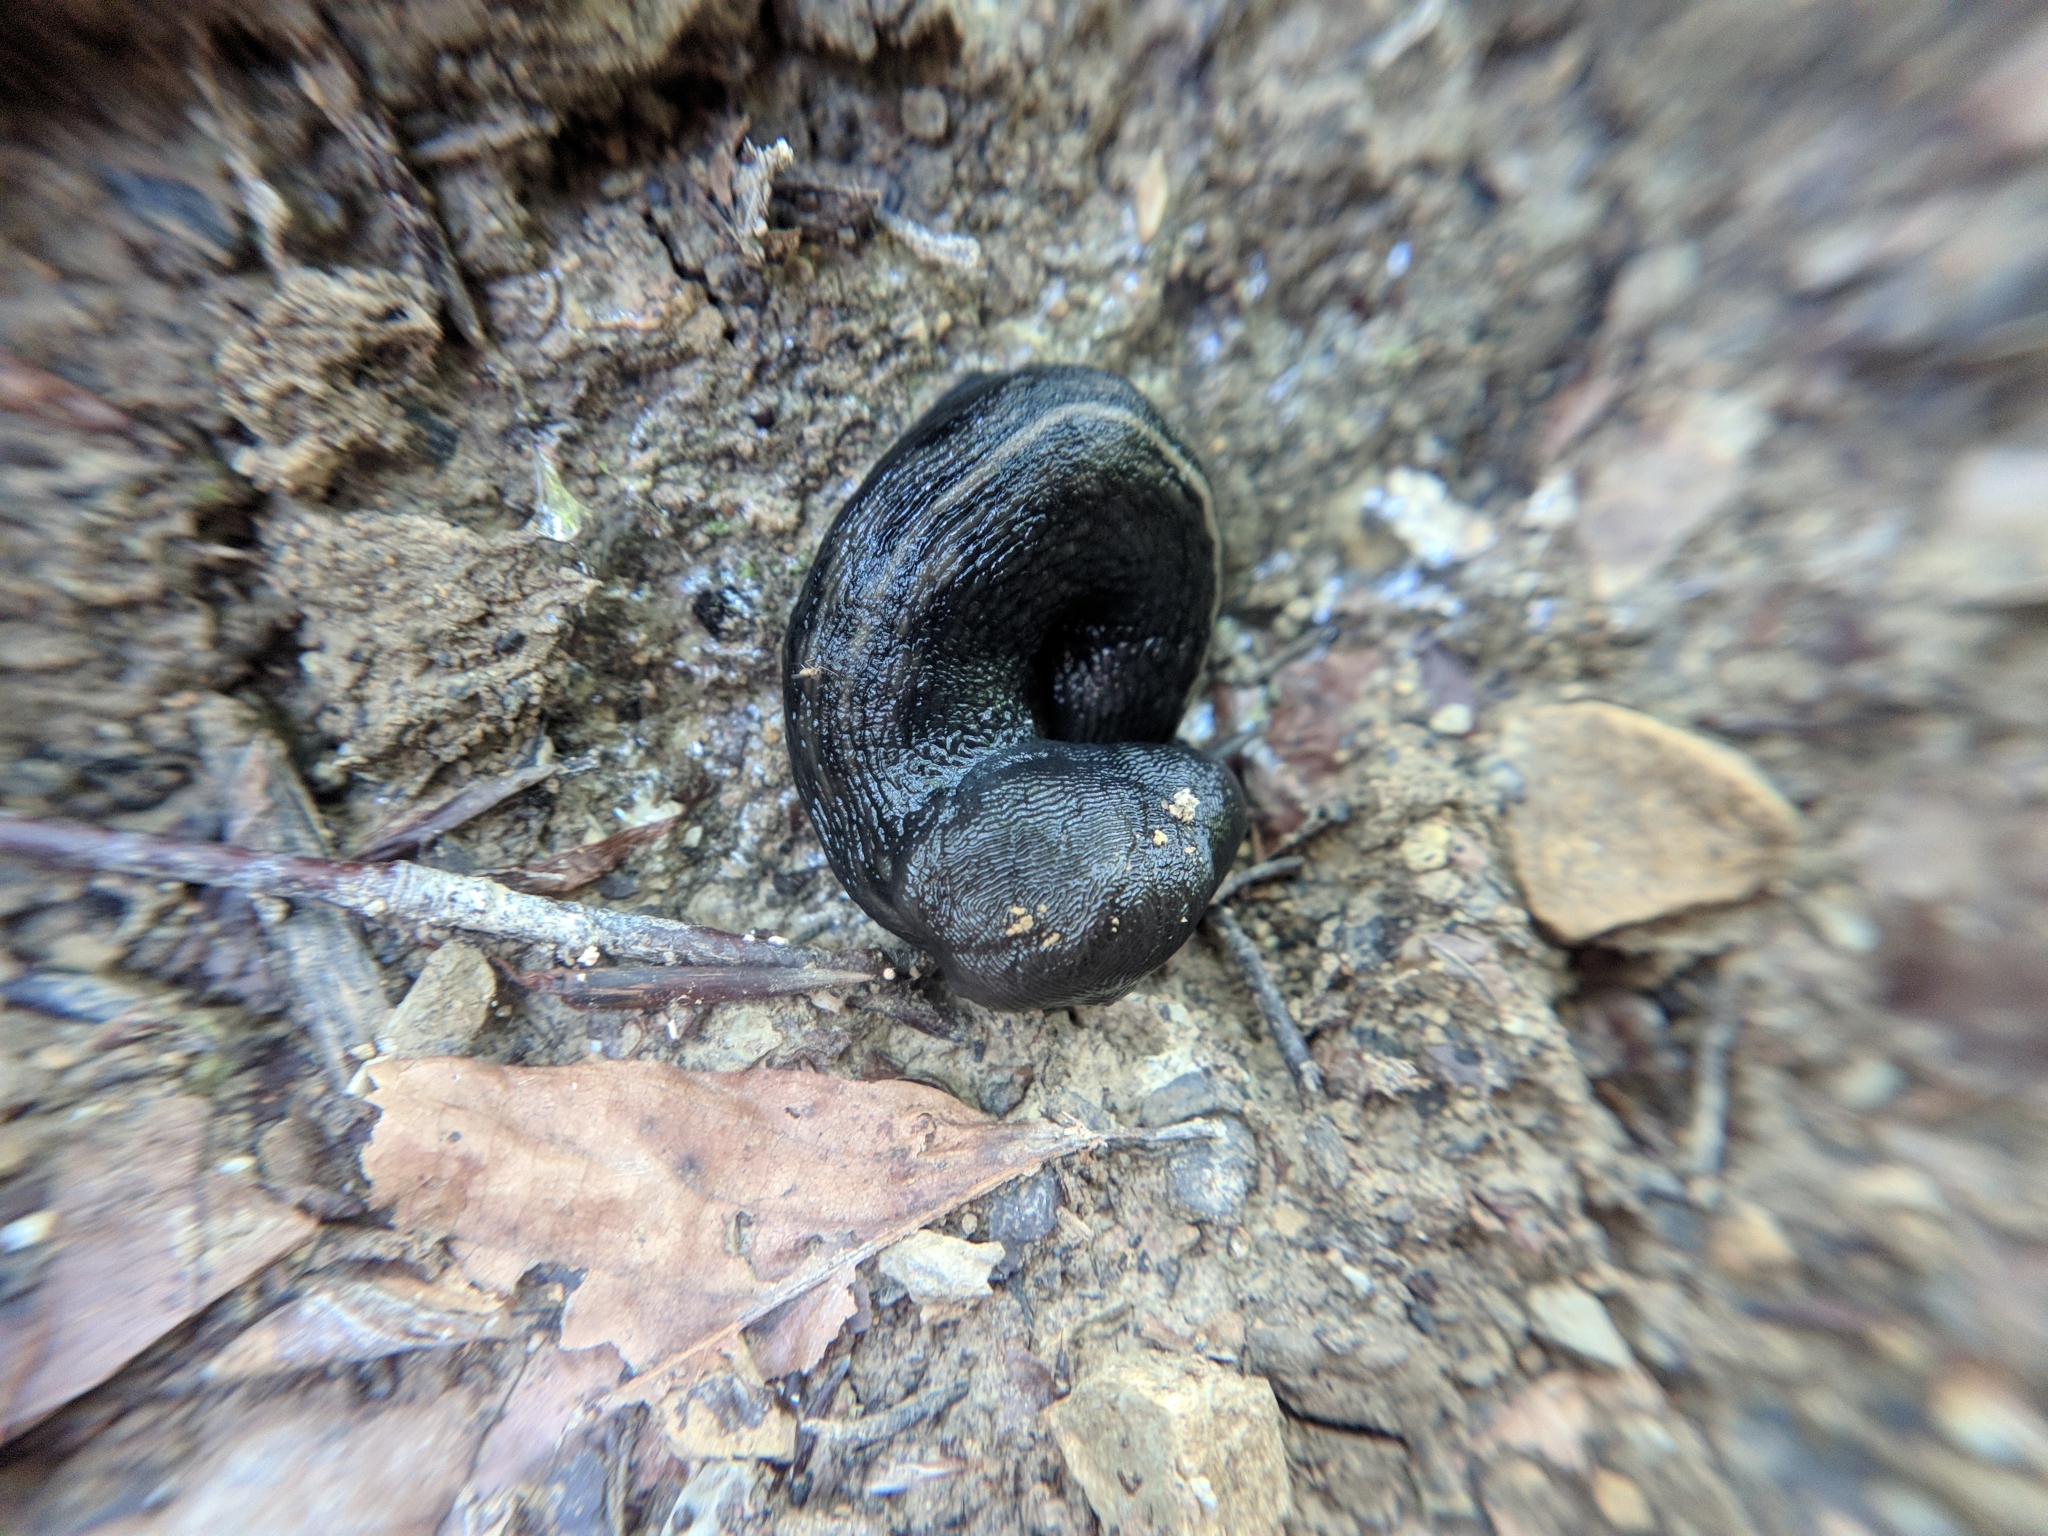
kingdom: Animalia
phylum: Mollusca
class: Gastropoda
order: Stylommatophora
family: Limacidae
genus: Limax
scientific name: Limax cinereoniger
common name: Ash-black slug
